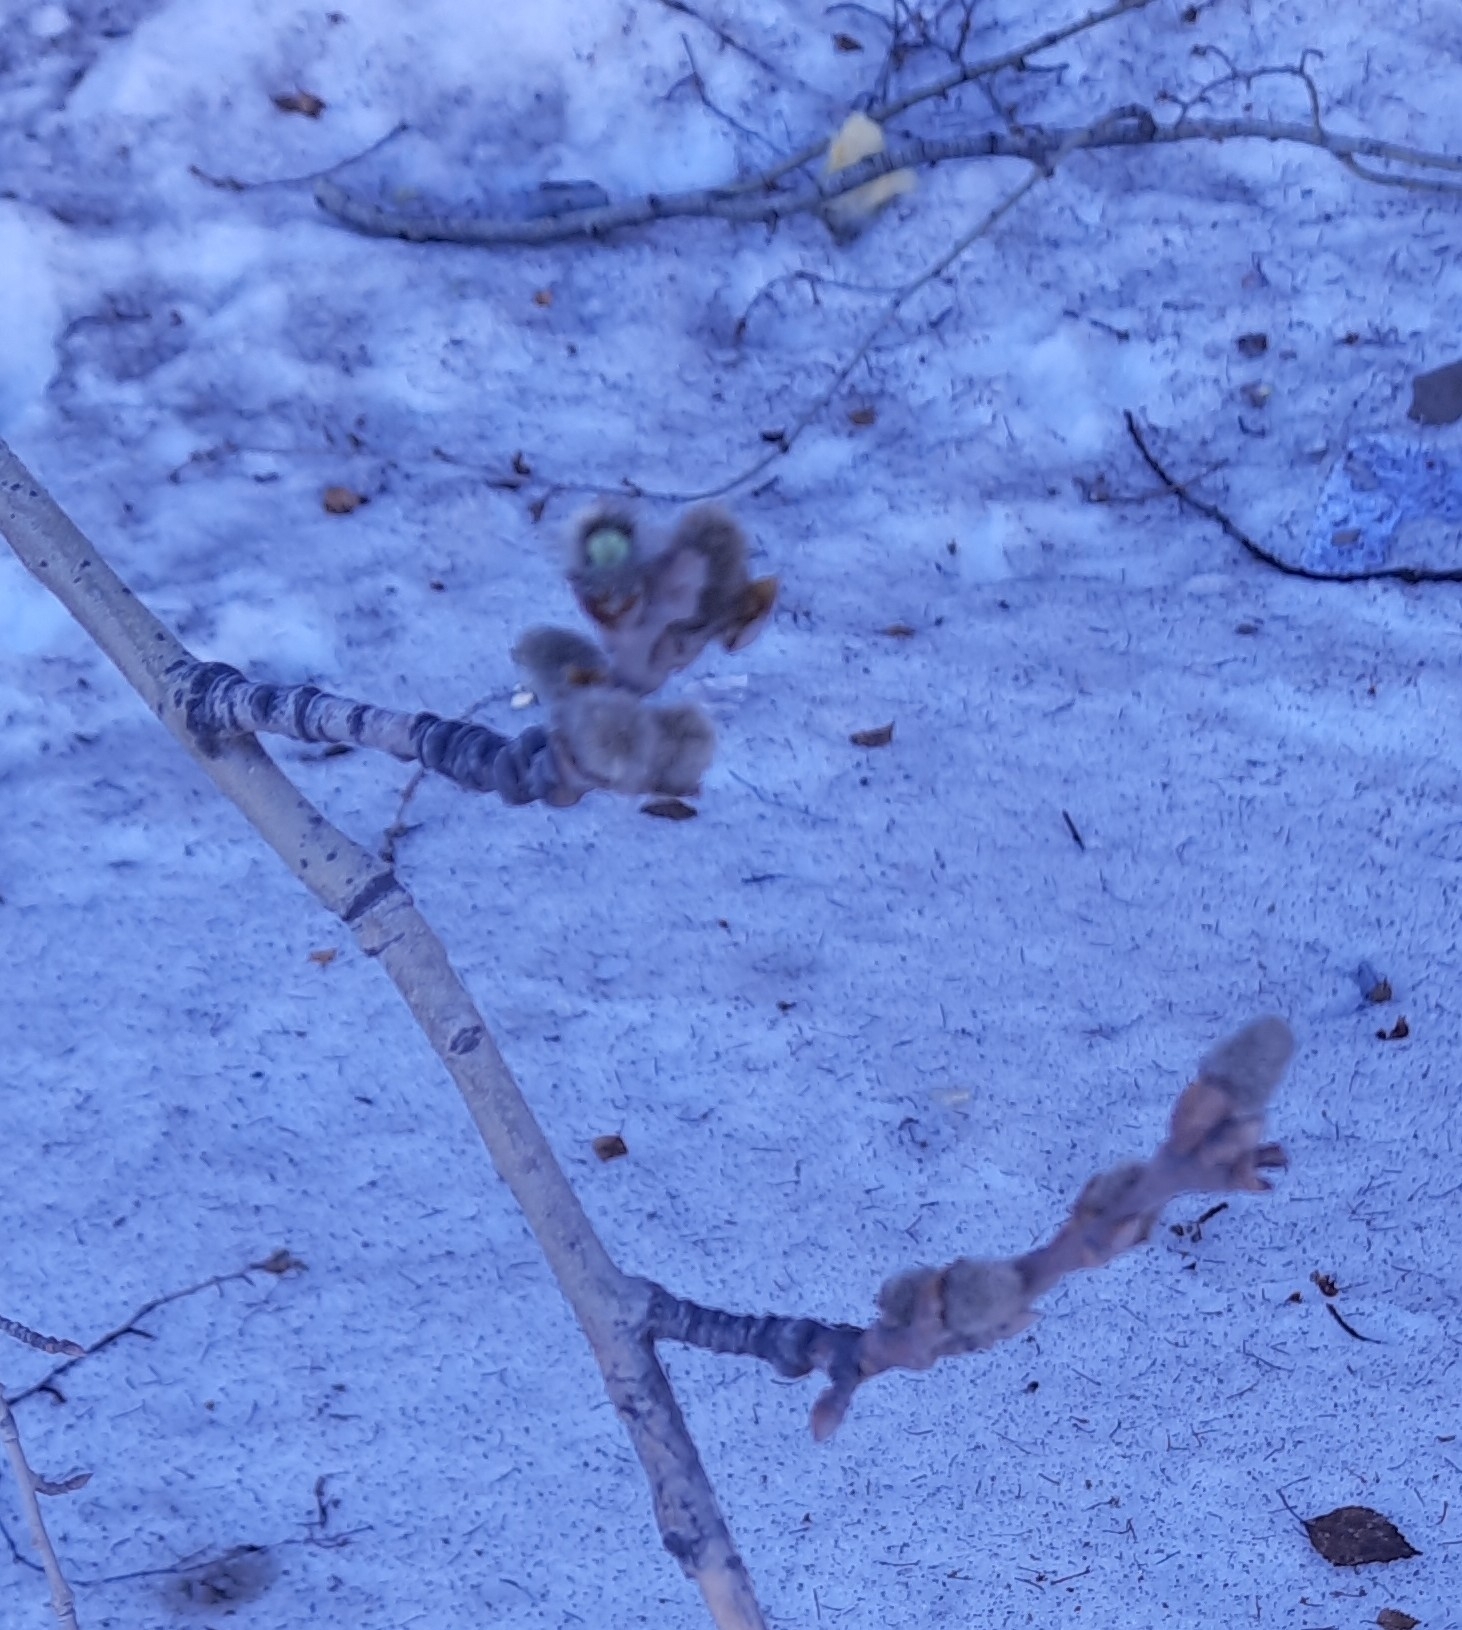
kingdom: Plantae
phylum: Tracheophyta
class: Magnoliopsida
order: Malpighiales
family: Salicaceae
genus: Populus
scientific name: Populus tremula
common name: European aspen
